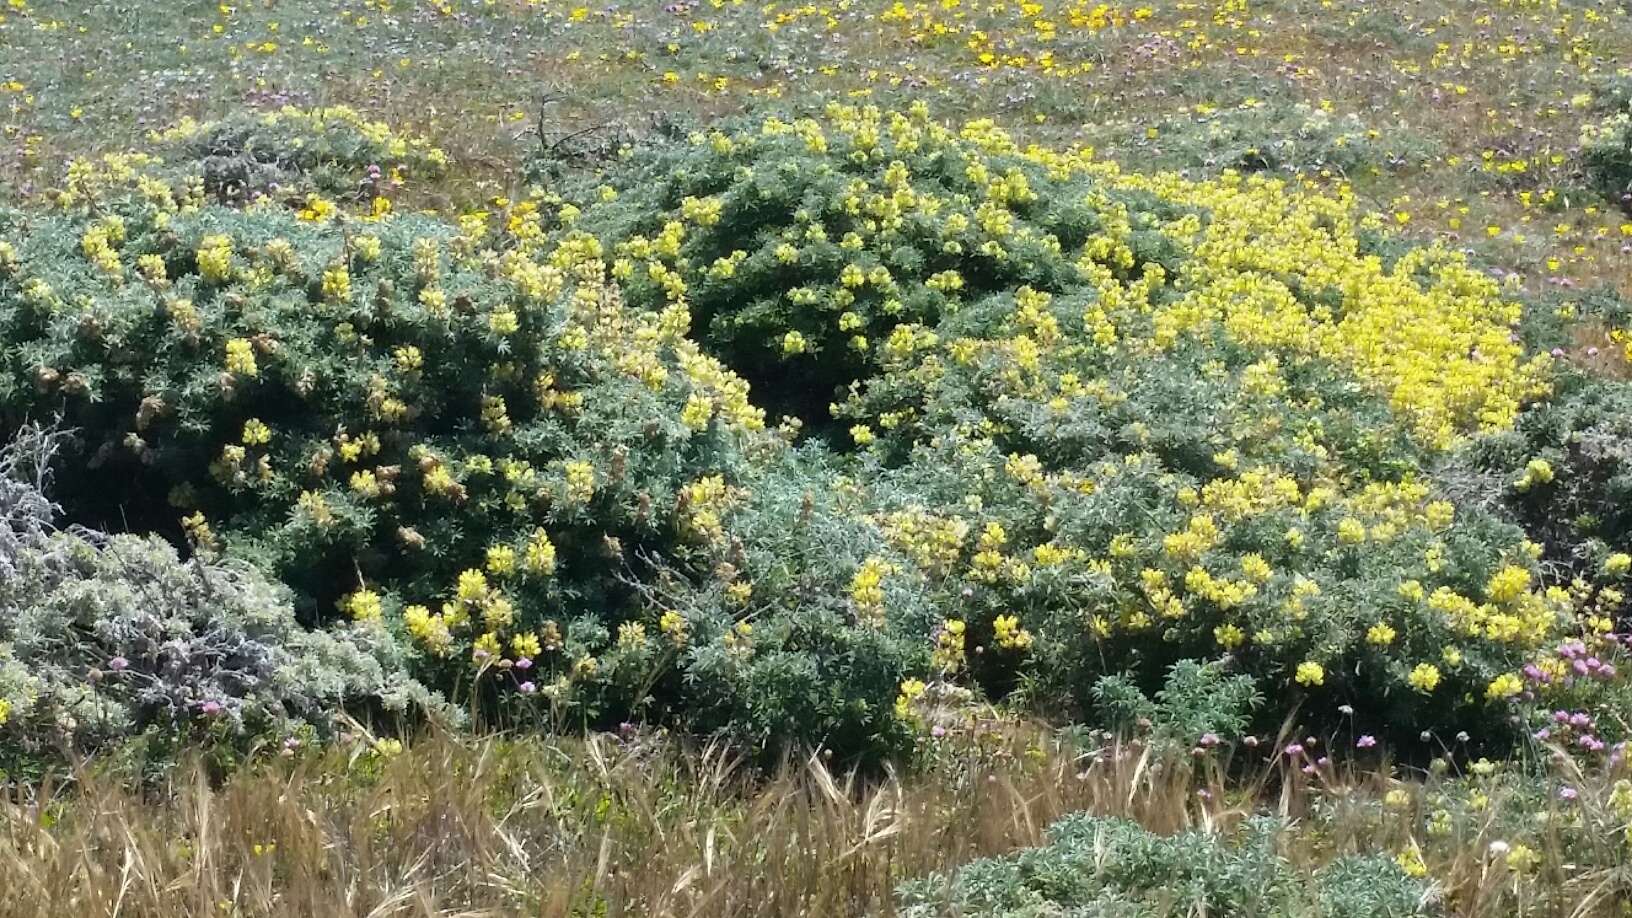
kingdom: Plantae
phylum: Tracheophyta
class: Magnoliopsida
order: Fabales
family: Fabaceae
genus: Lupinus
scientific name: Lupinus arboreus
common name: Yellow bush lupine
